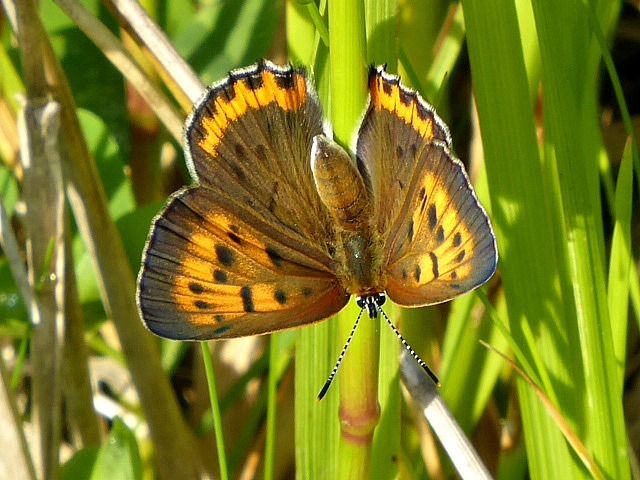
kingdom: Animalia
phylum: Arthropoda
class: Insecta
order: Lepidoptera
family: Lycaenidae
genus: Tharsalea
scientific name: Tharsalea hyllus
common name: Bronze copper
